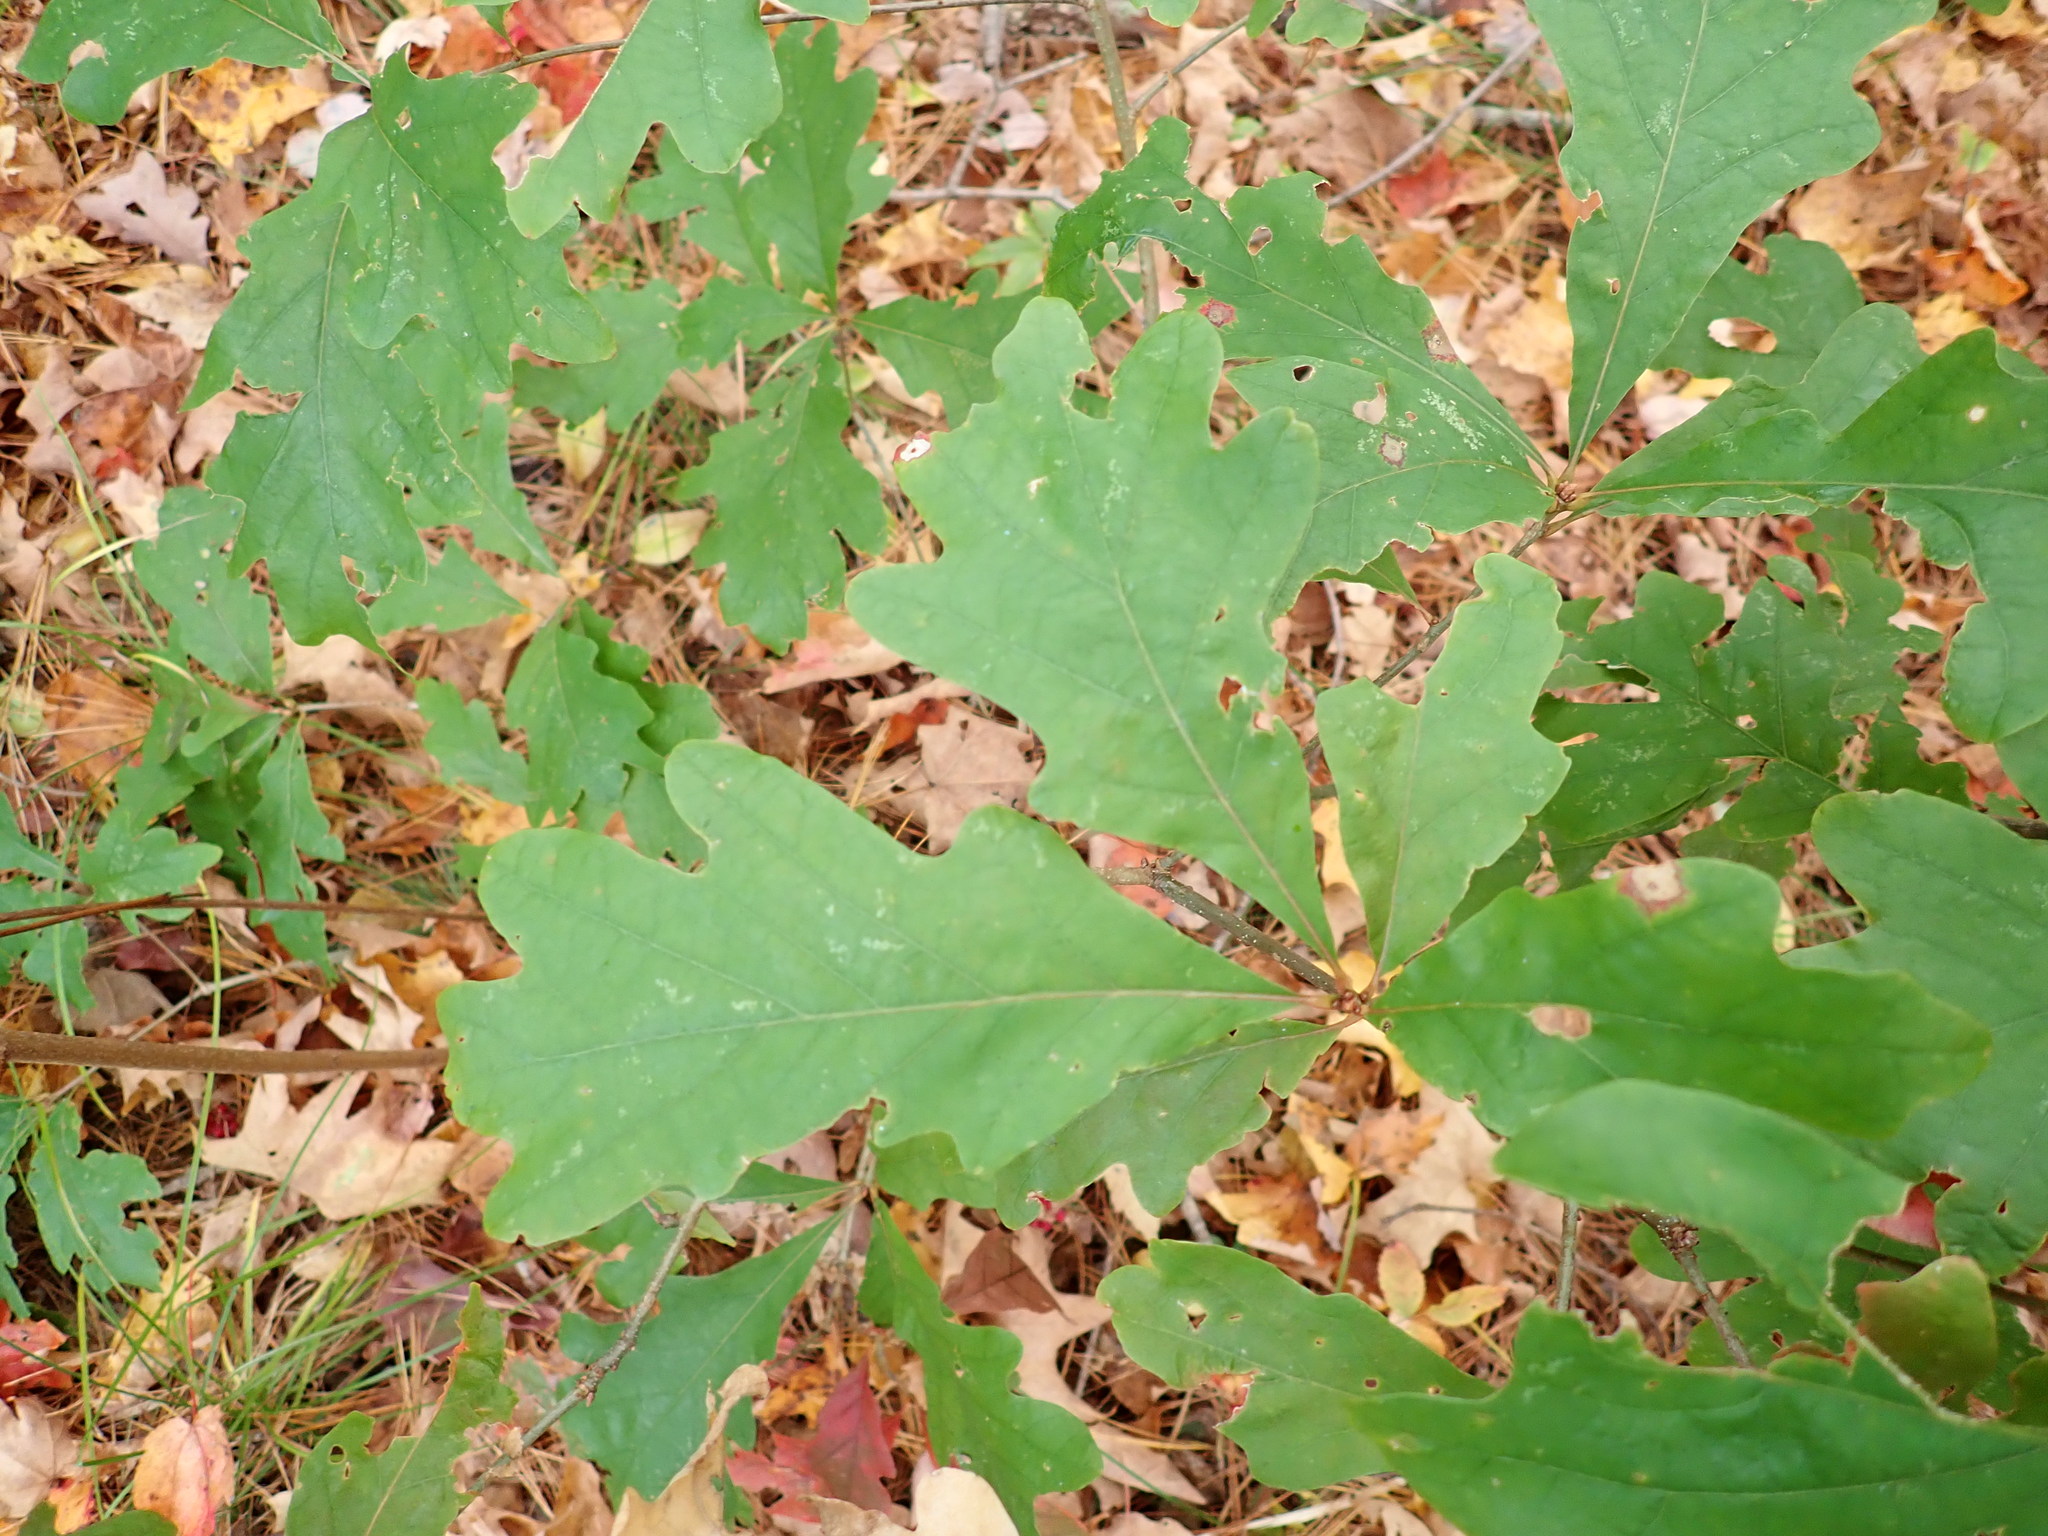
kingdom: Plantae
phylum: Tracheophyta
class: Magnoliopsida
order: Fagales
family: Fagaceae
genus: Quercus
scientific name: Quercus alba
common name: White oak
